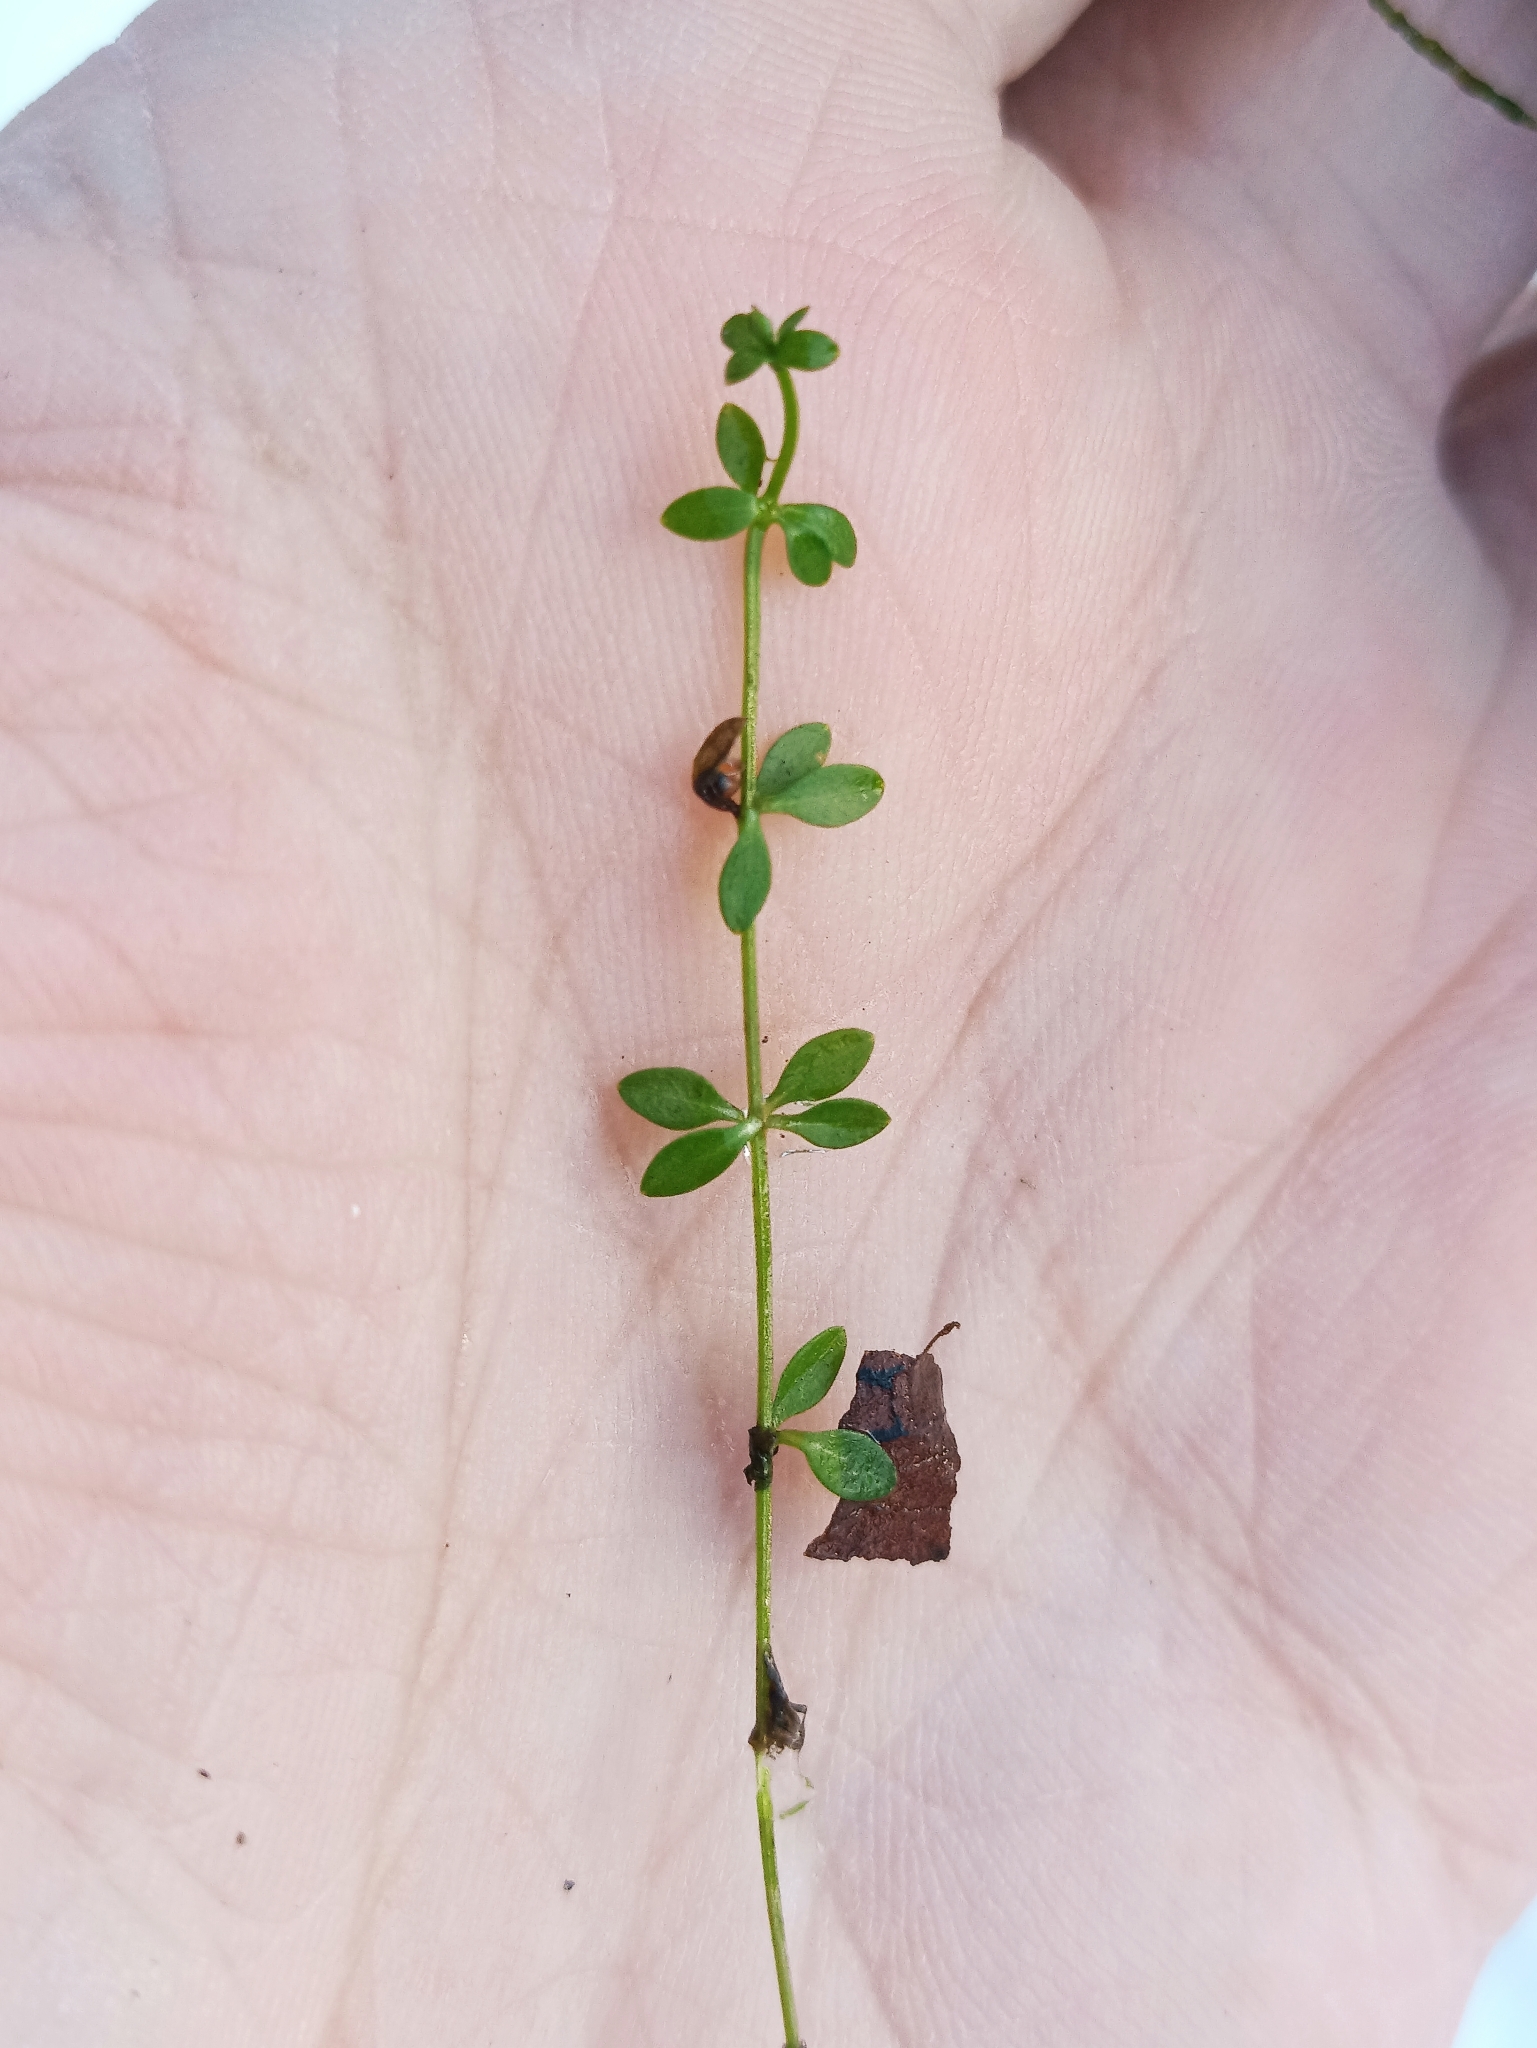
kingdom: Plantae
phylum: Tracheophyta
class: Magnoliopsida
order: Gentianales
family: Rubiaceae
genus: Galium
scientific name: Galium palustre
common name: Common marsh-bedstraw
